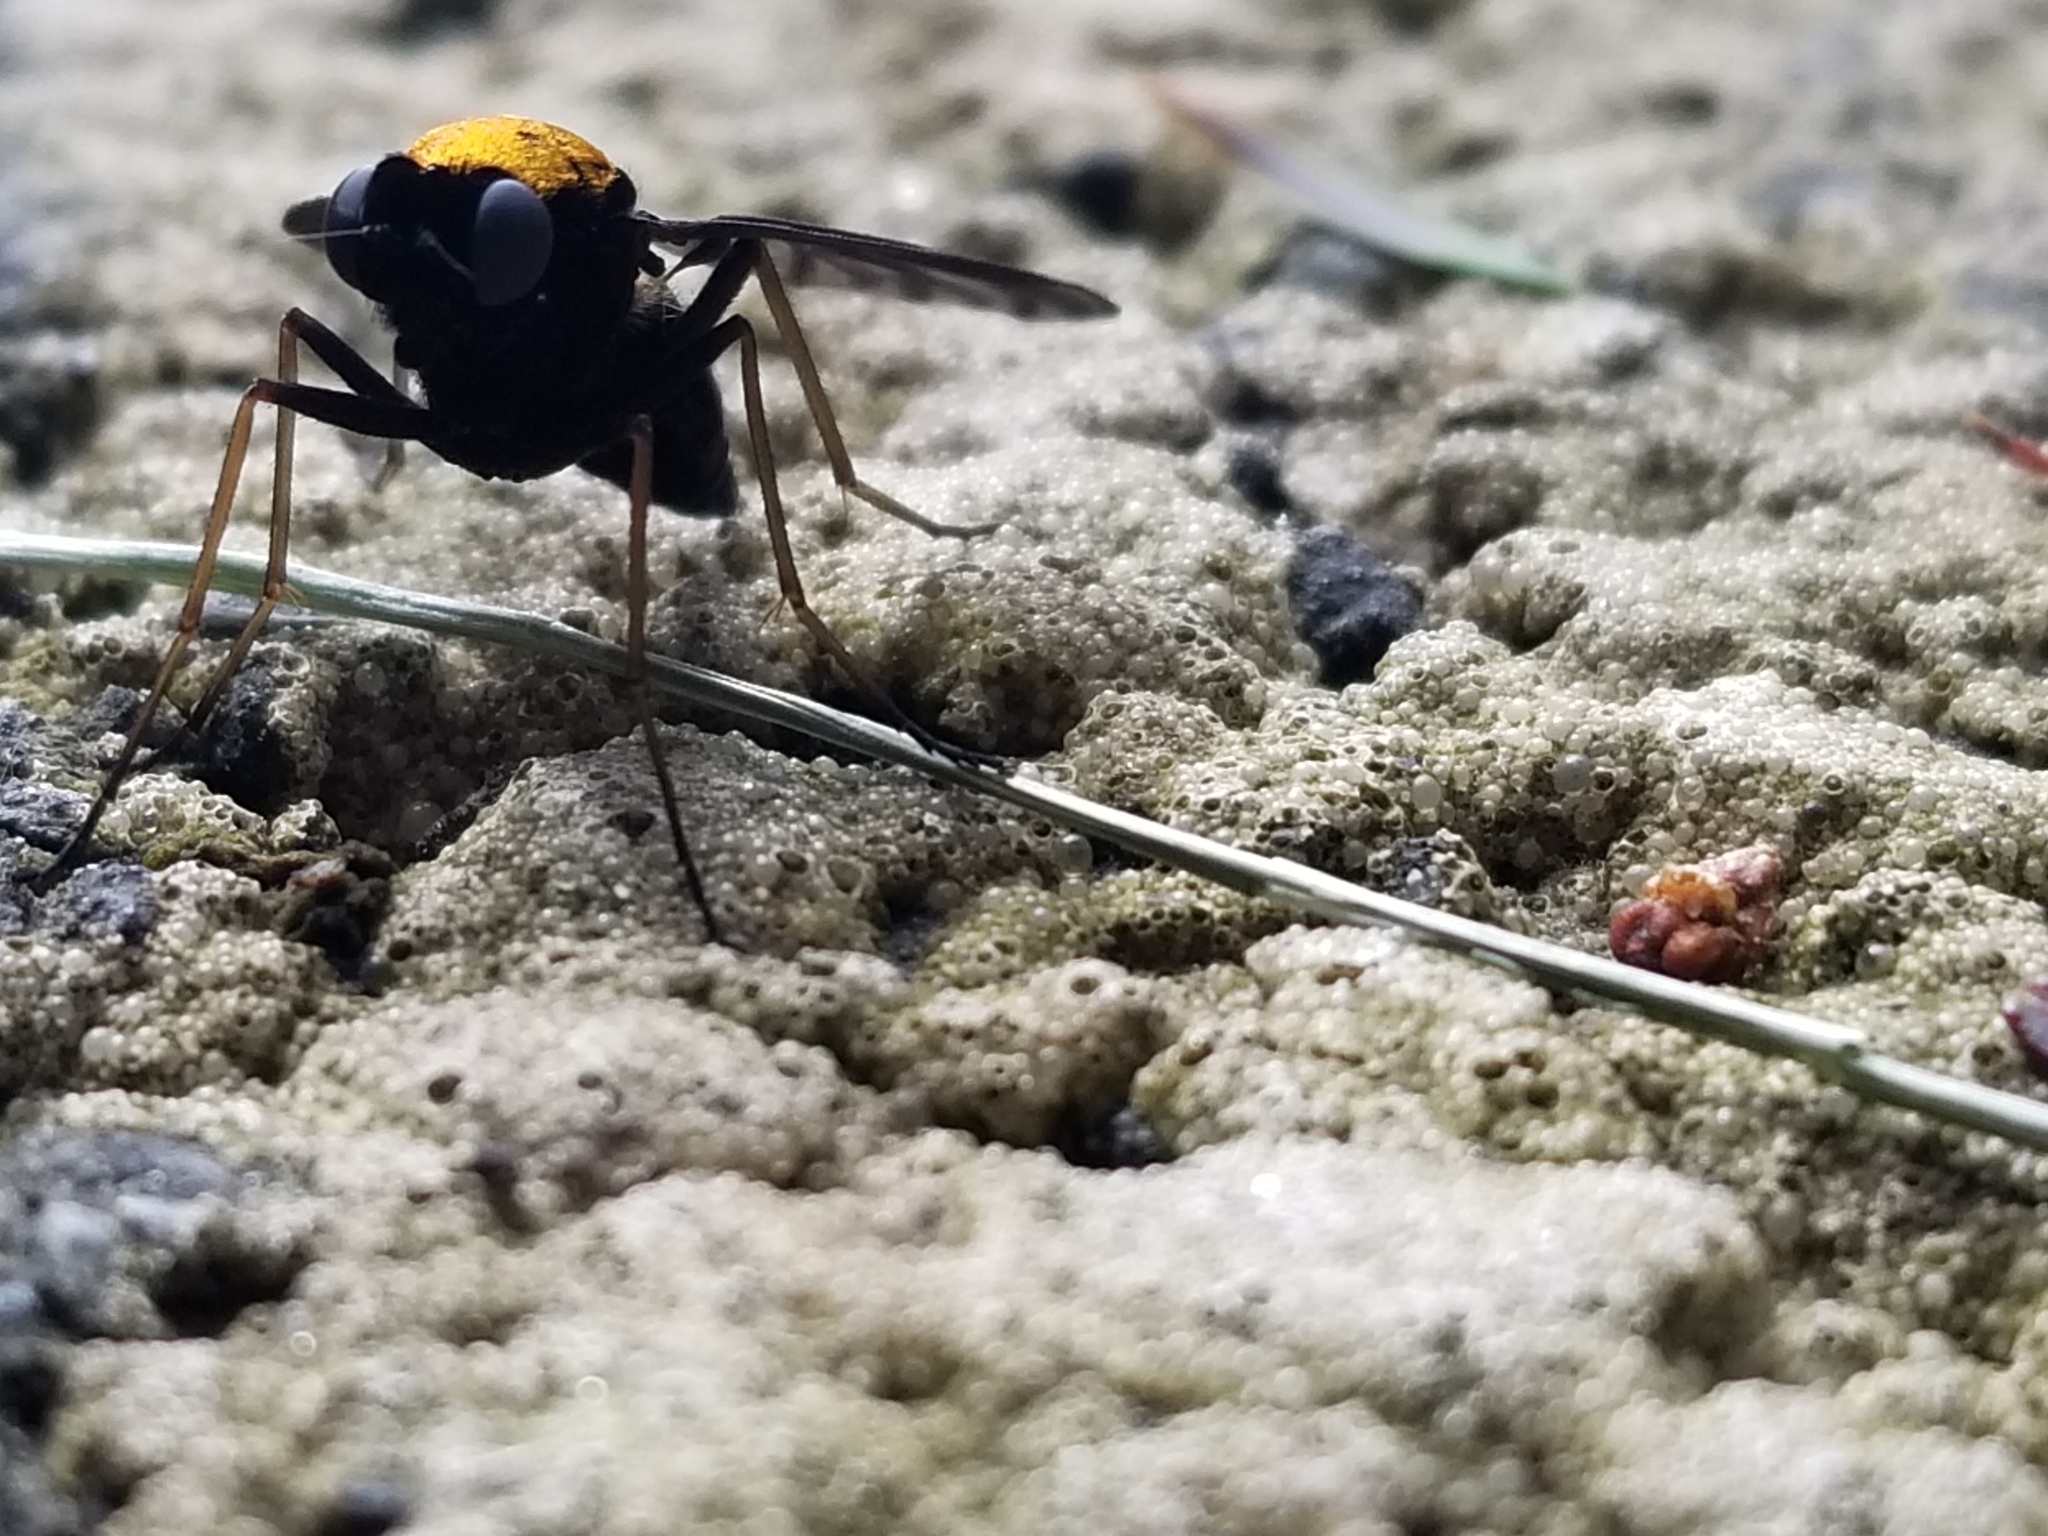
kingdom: Animalia
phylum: Arthropoda
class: Insecta
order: Diptera
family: Rhagionidae
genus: Chrysopilus
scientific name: Chrysopilus thoracicus
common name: Golden-backed snipe fly
